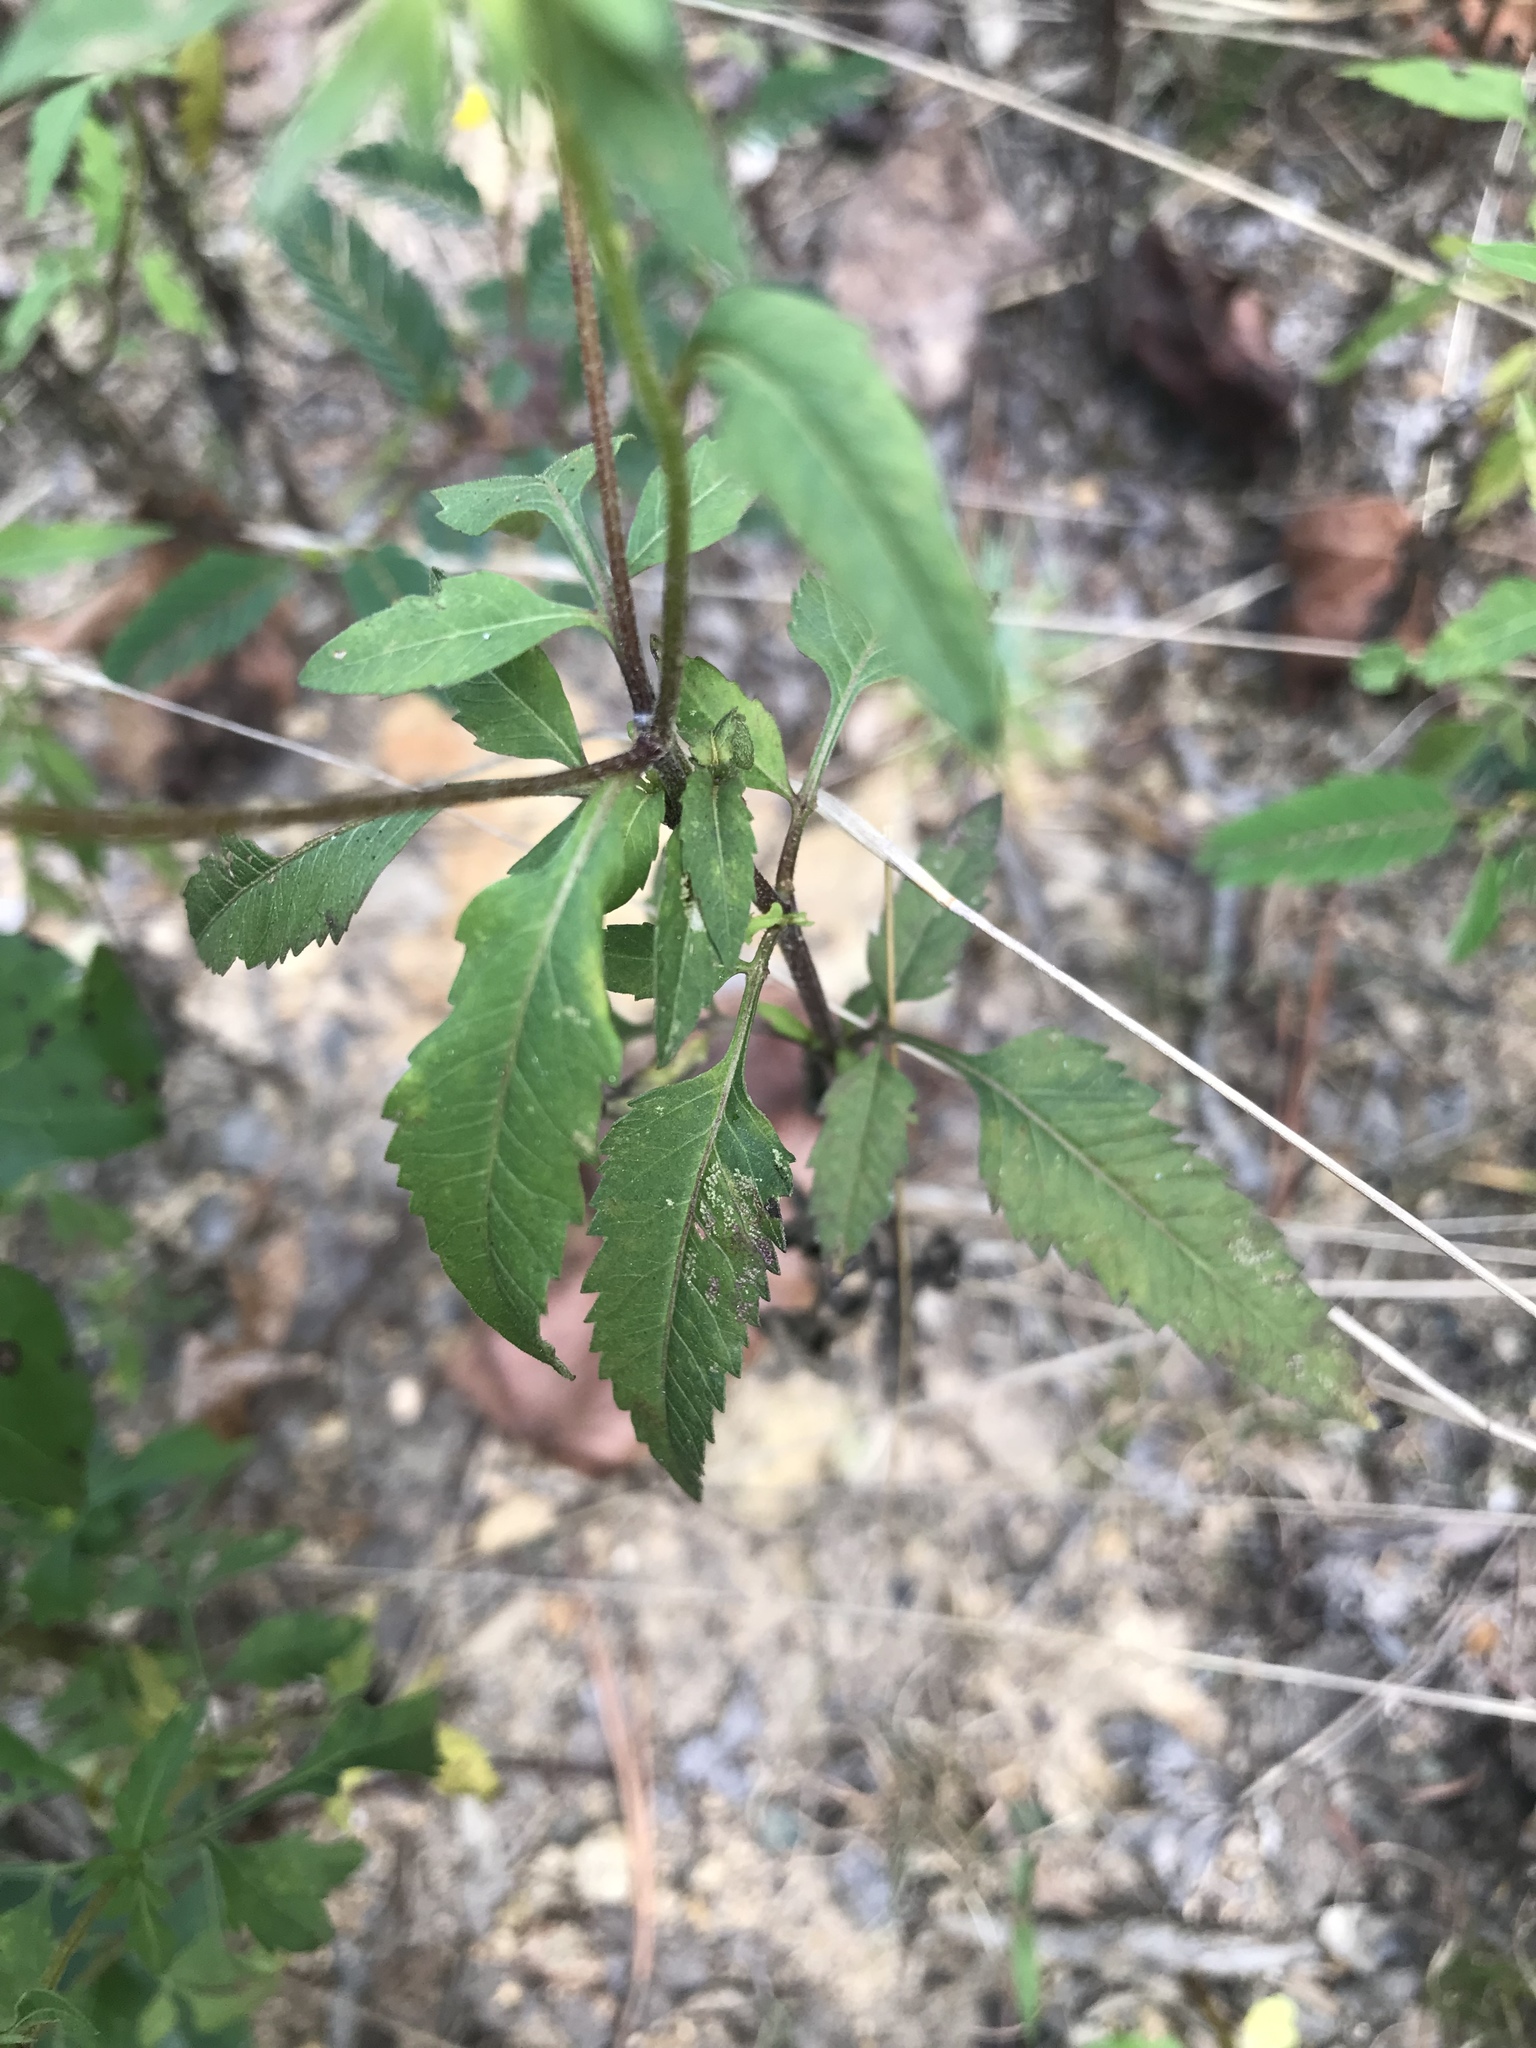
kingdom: Plantae
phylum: Tracheophyta
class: Magnoliopsida
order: Asterales
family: Asteraceae
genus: Bidens
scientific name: Bidens aristosa
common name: Western tickseed
